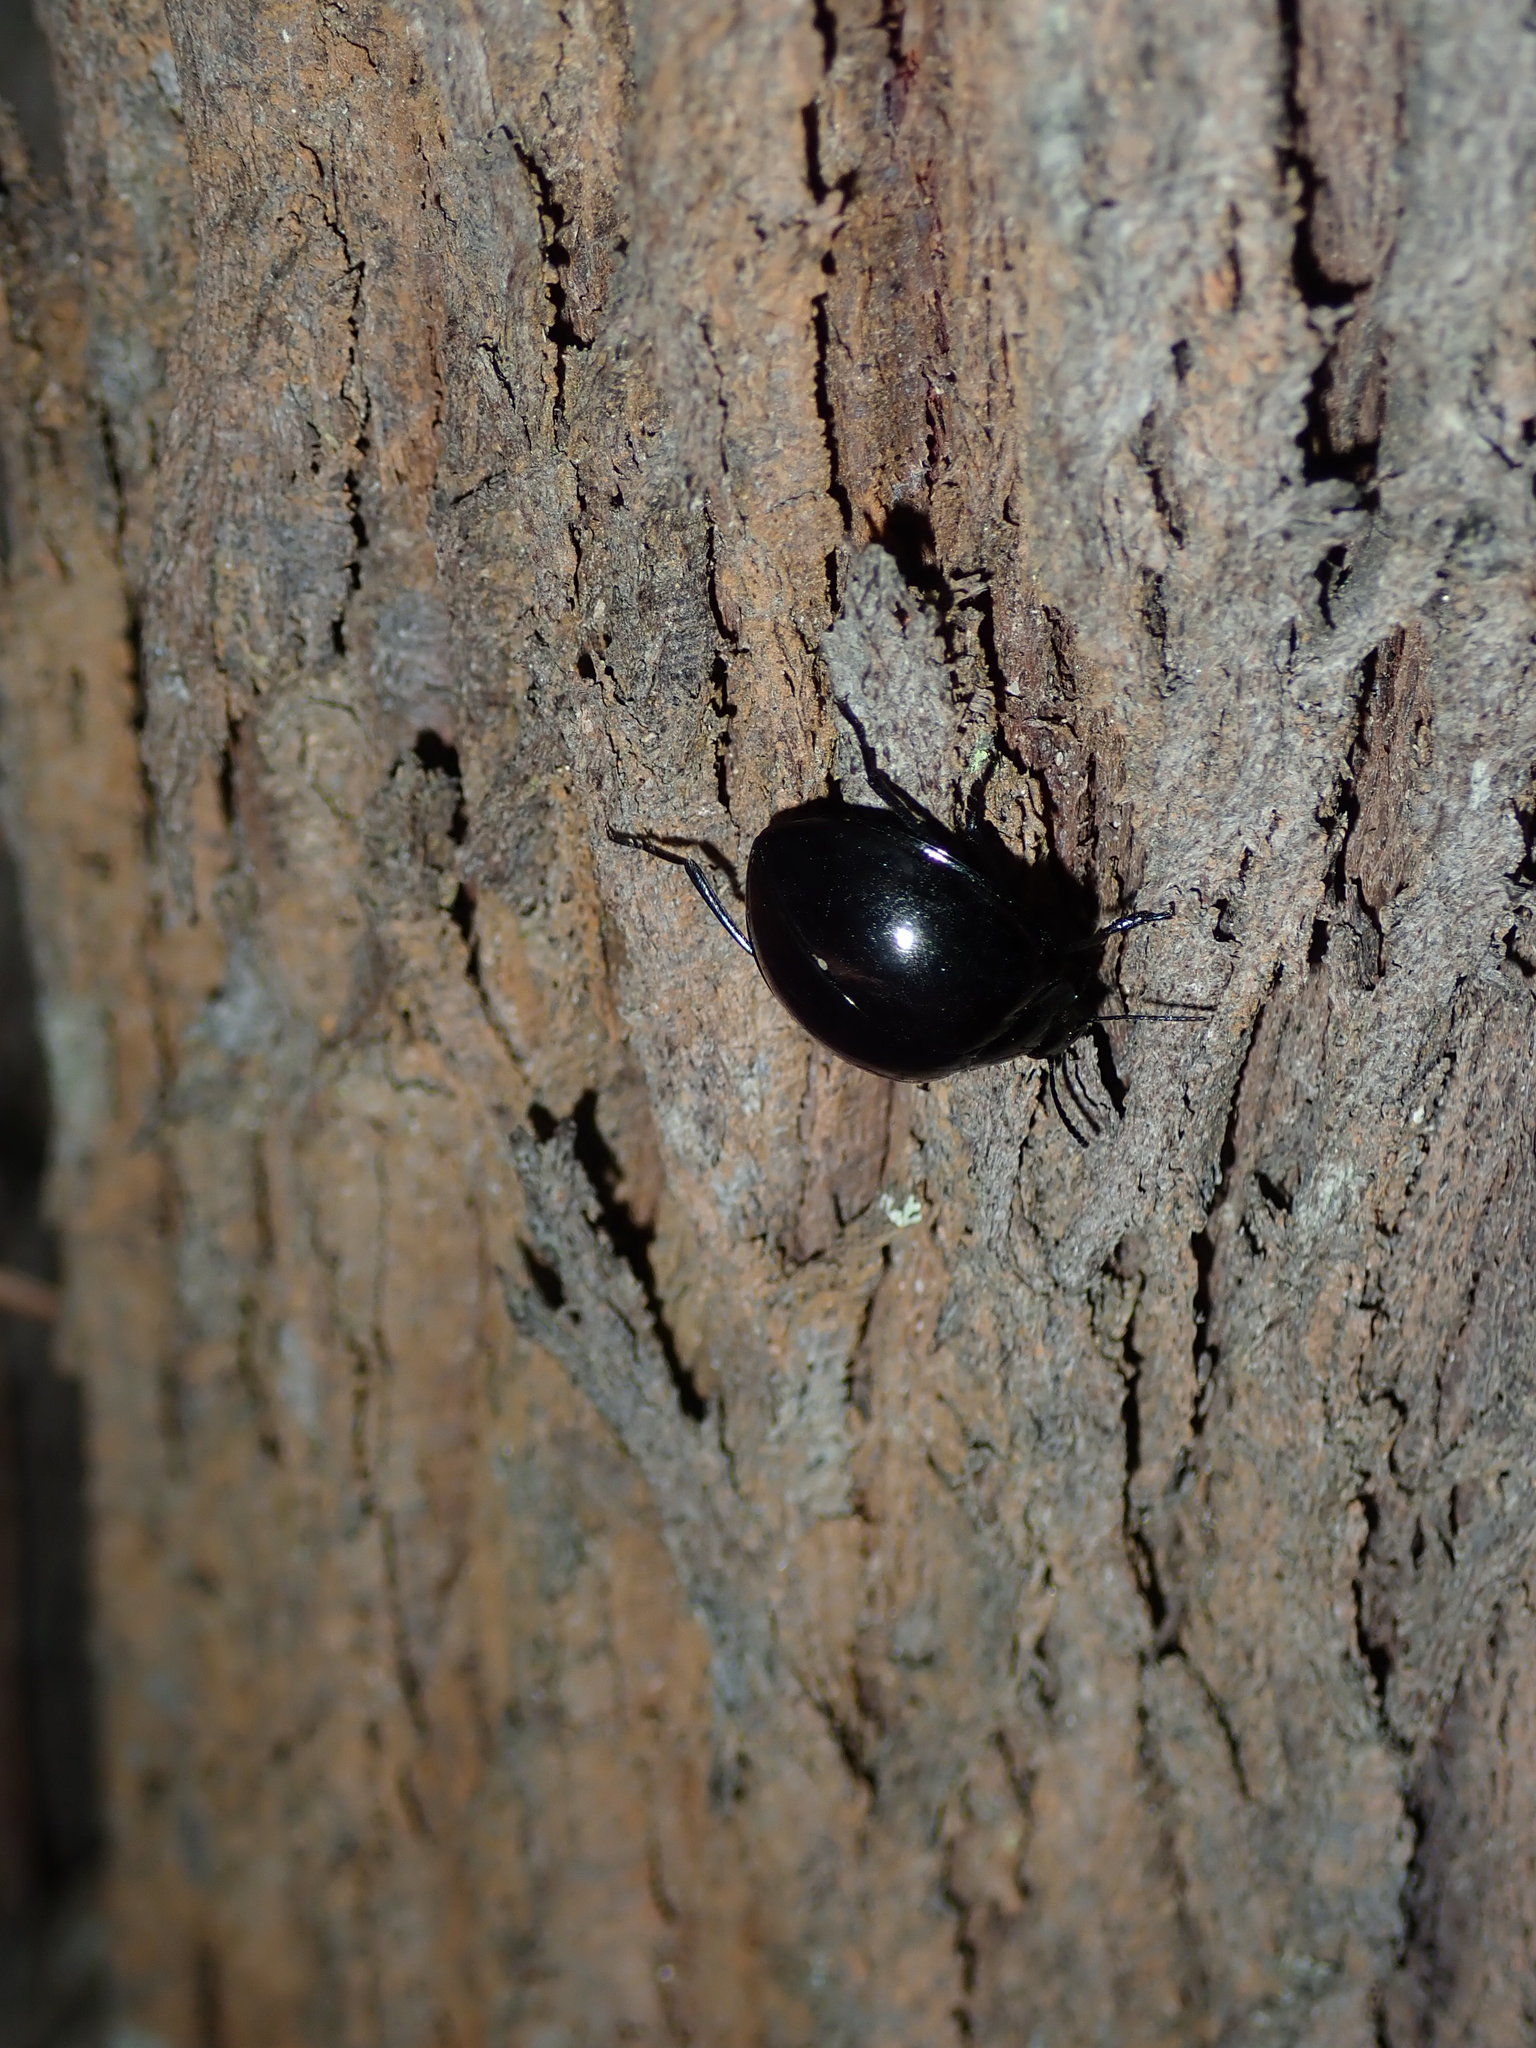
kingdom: Animalia
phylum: Arthropoda
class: Insecta
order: Coleoptera
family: Tenebrionidae
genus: Hemicyclus
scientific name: Hemicyclus
